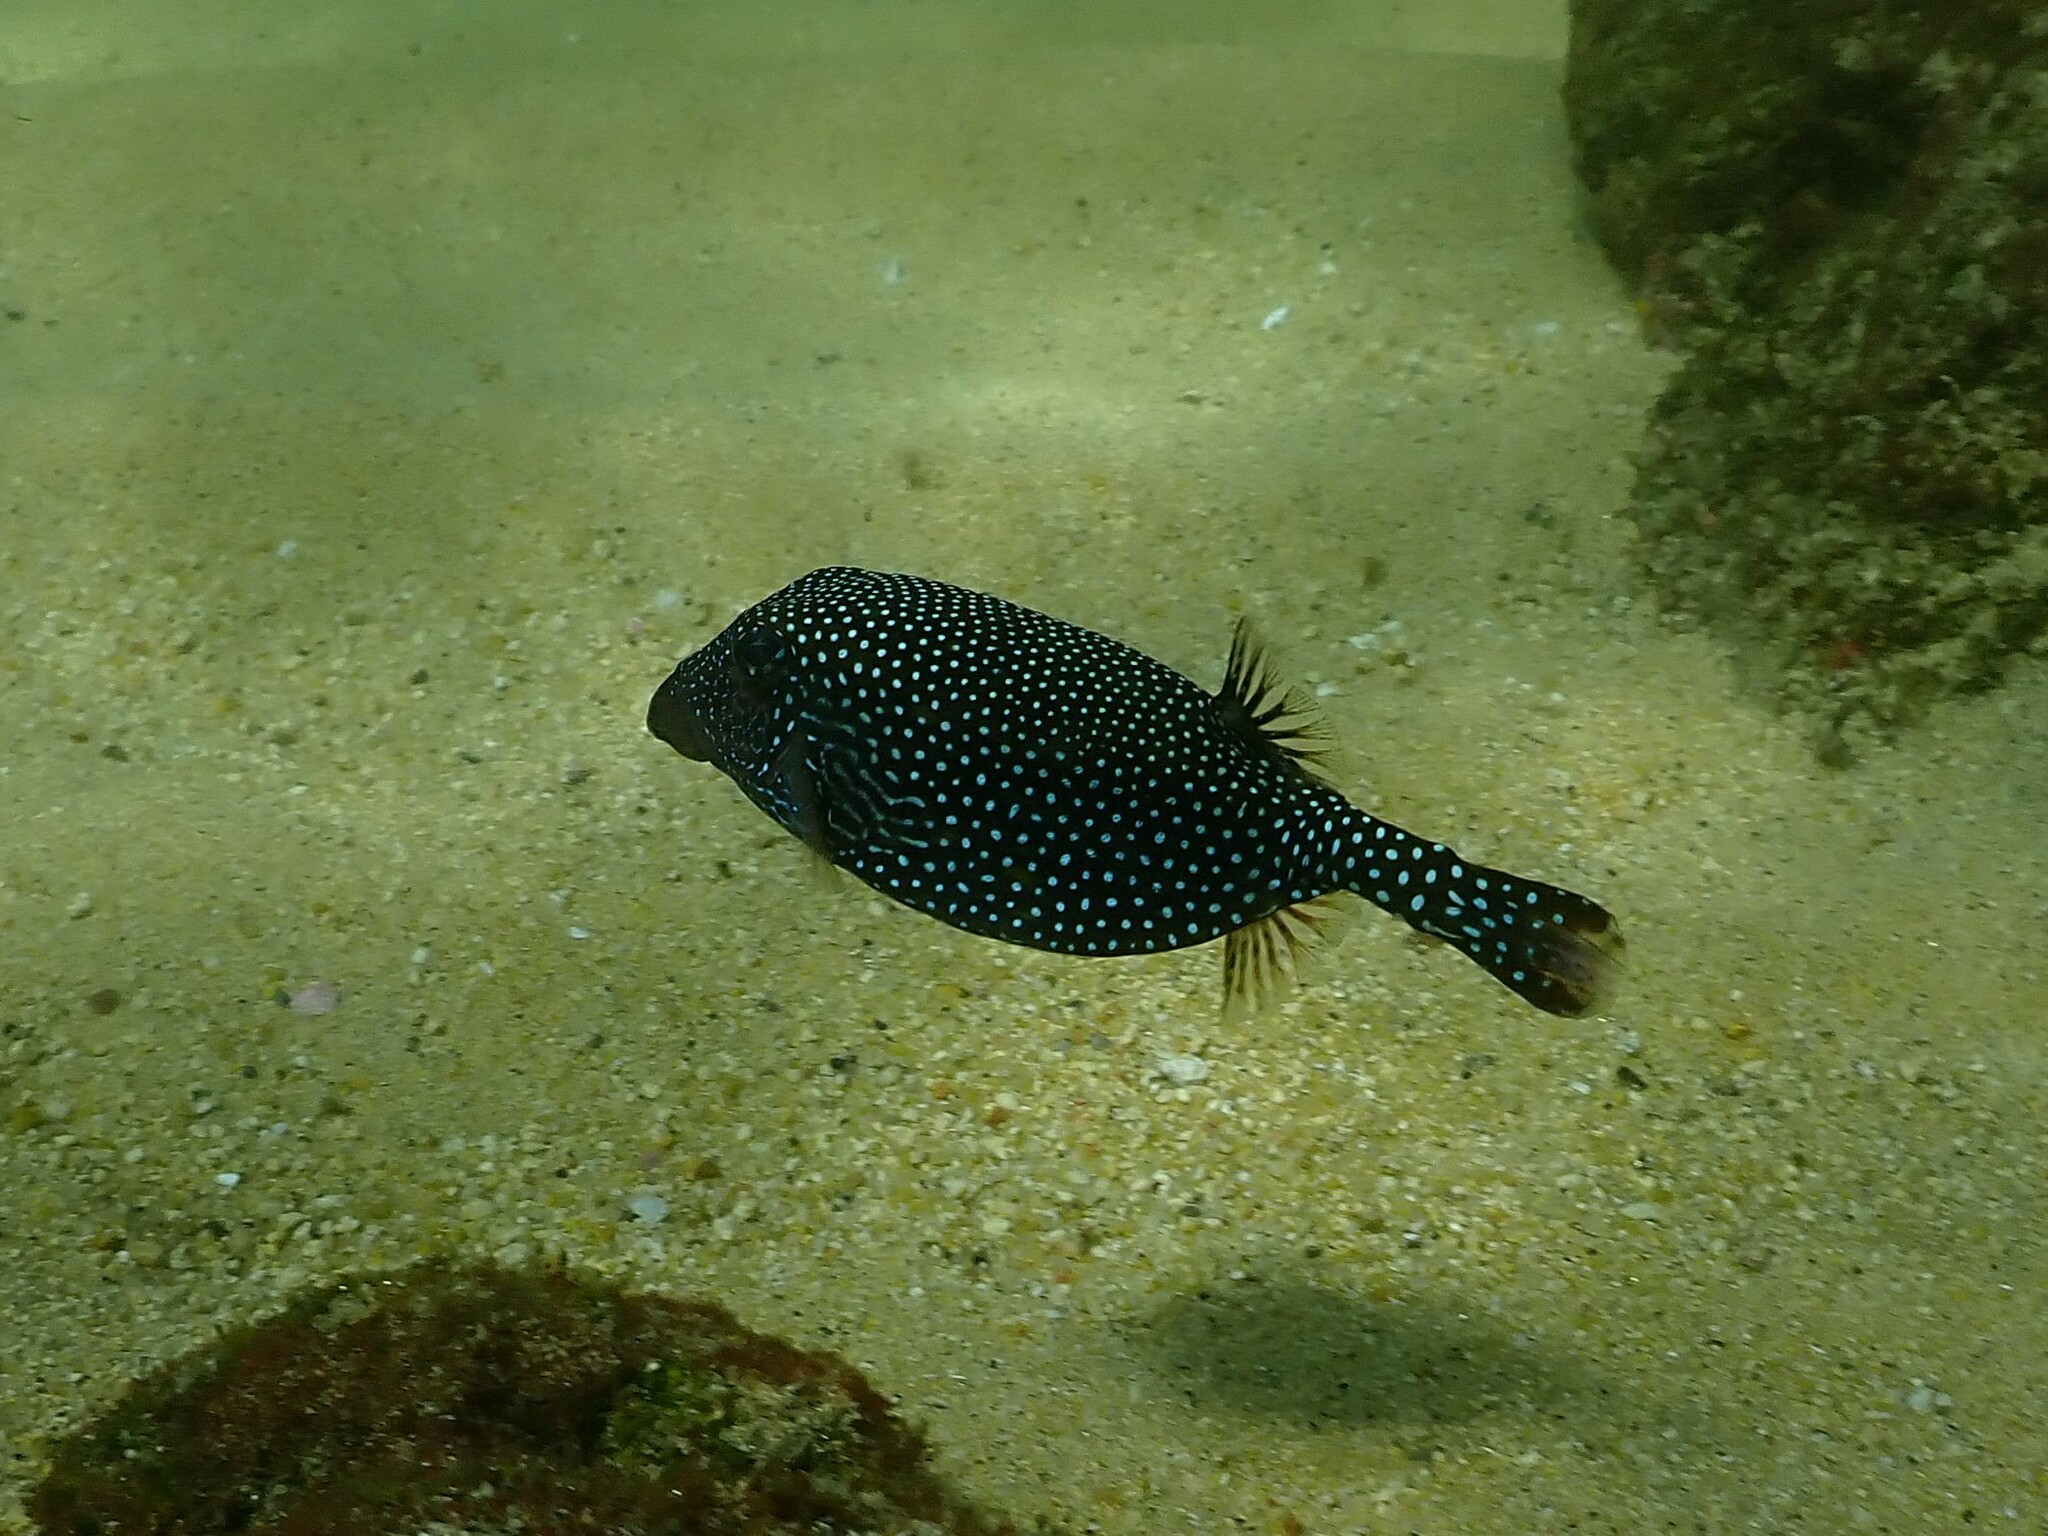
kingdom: Animalia
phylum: Chordata
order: Tetraodontiformes
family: Ostraciidae
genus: Ostracion
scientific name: Ostracion meleagris
